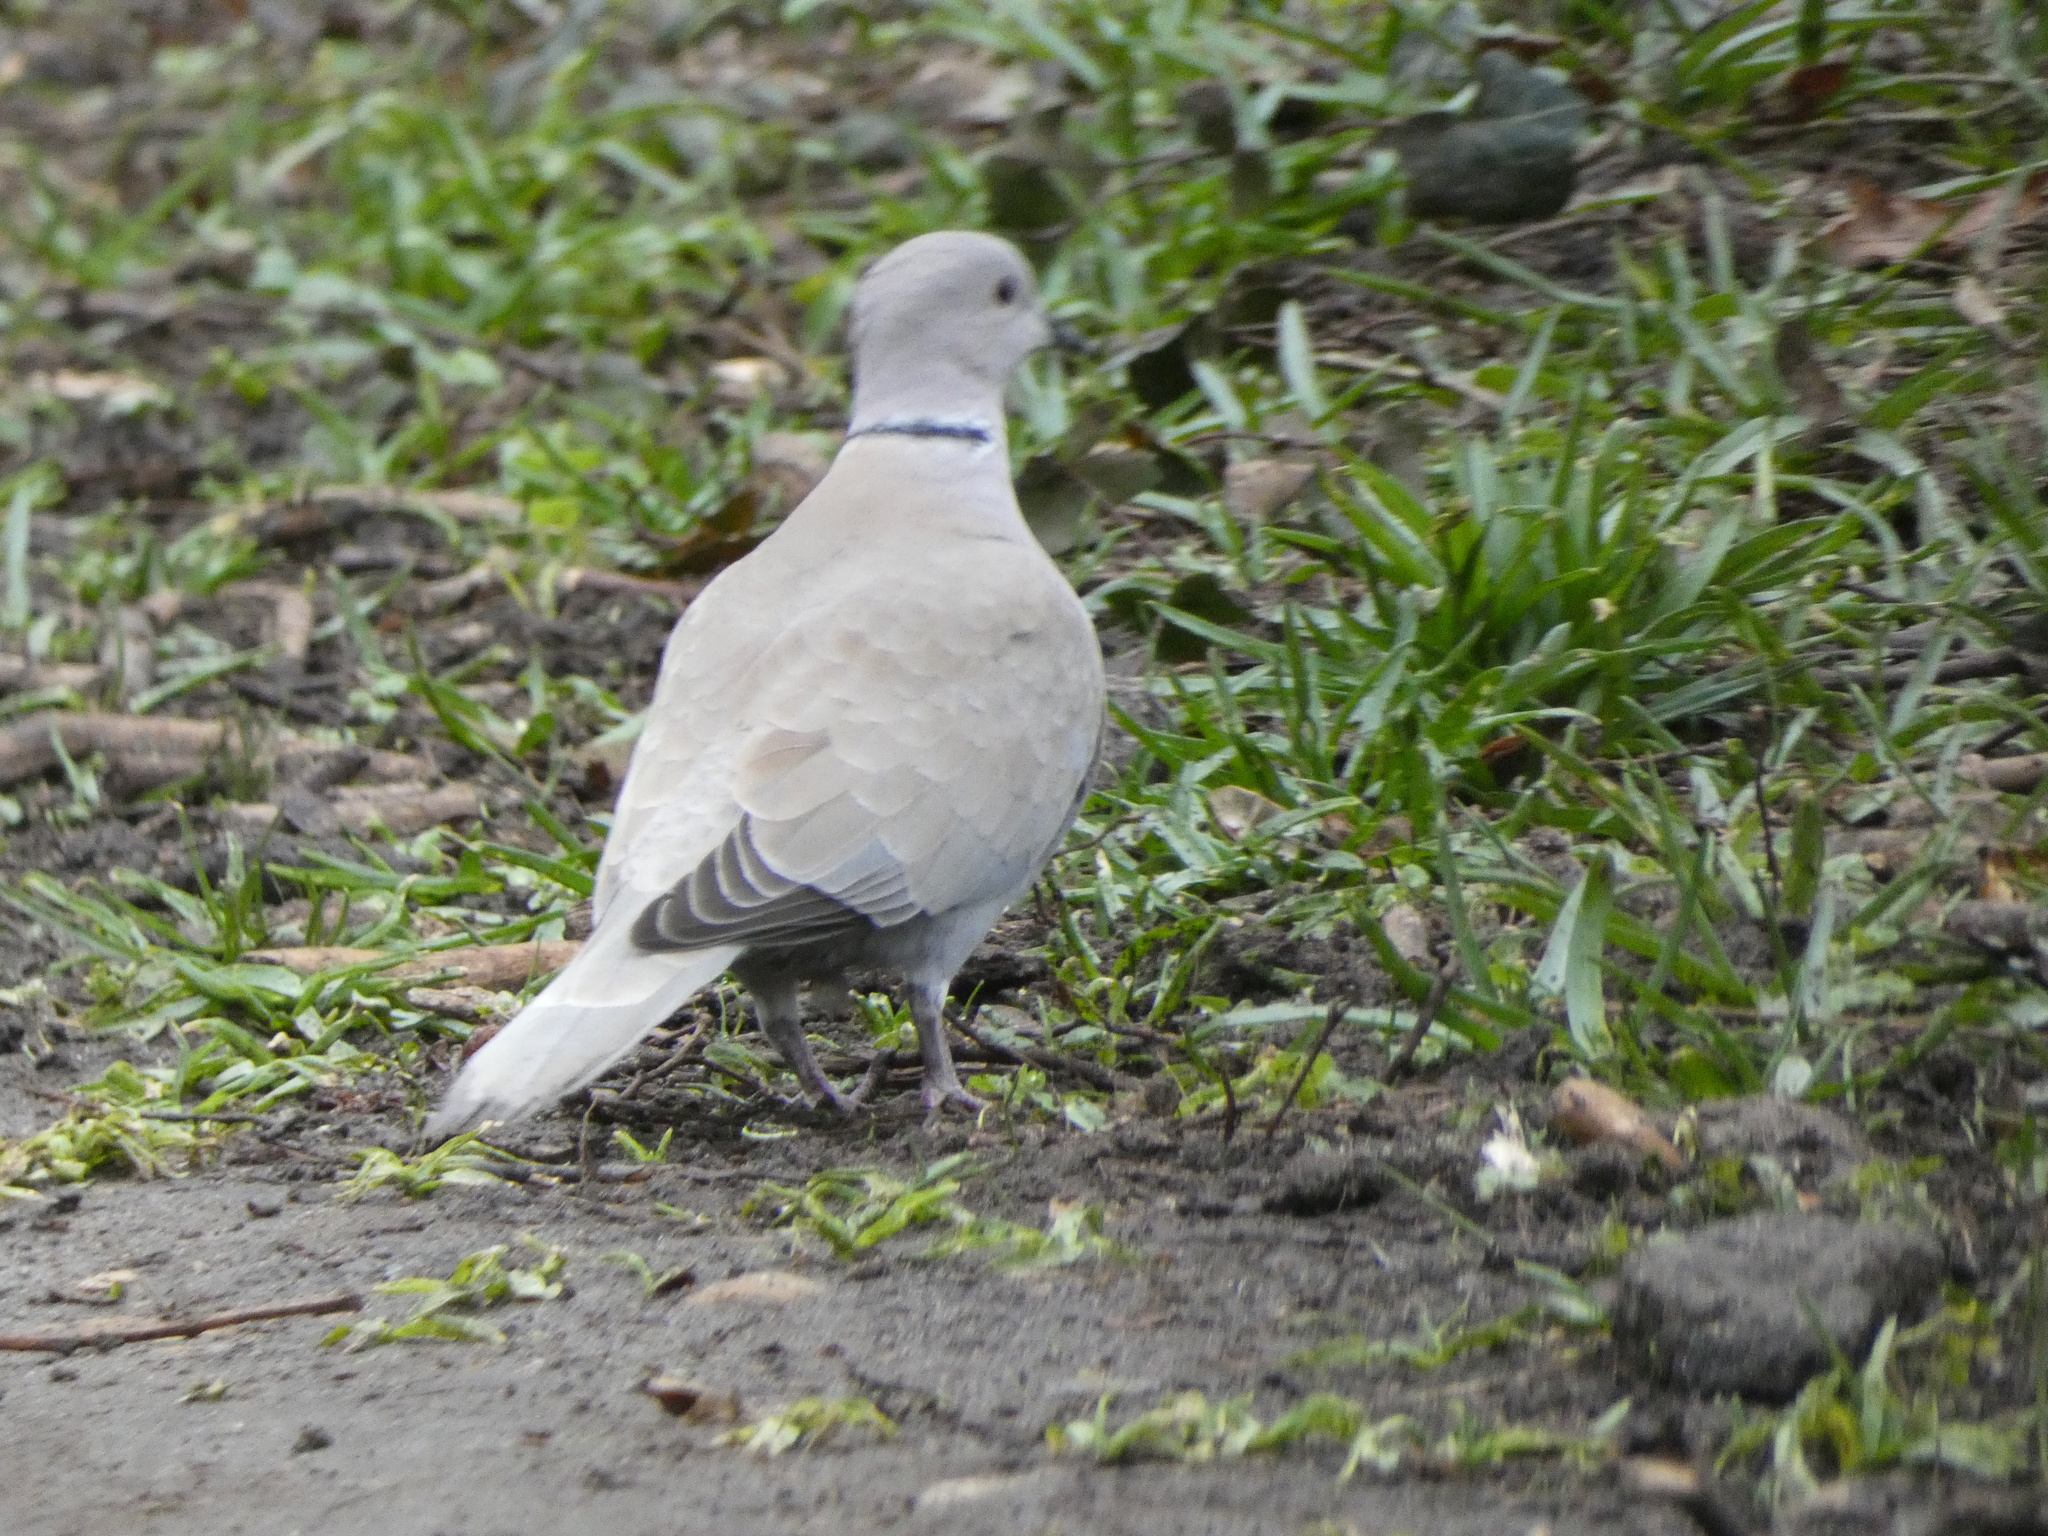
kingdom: Animalia
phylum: Chordata
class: Aves
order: Columbiformes
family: Columbidae
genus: Streptopelia
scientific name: Streptopelia decaocto
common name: Eurasian collared dove
